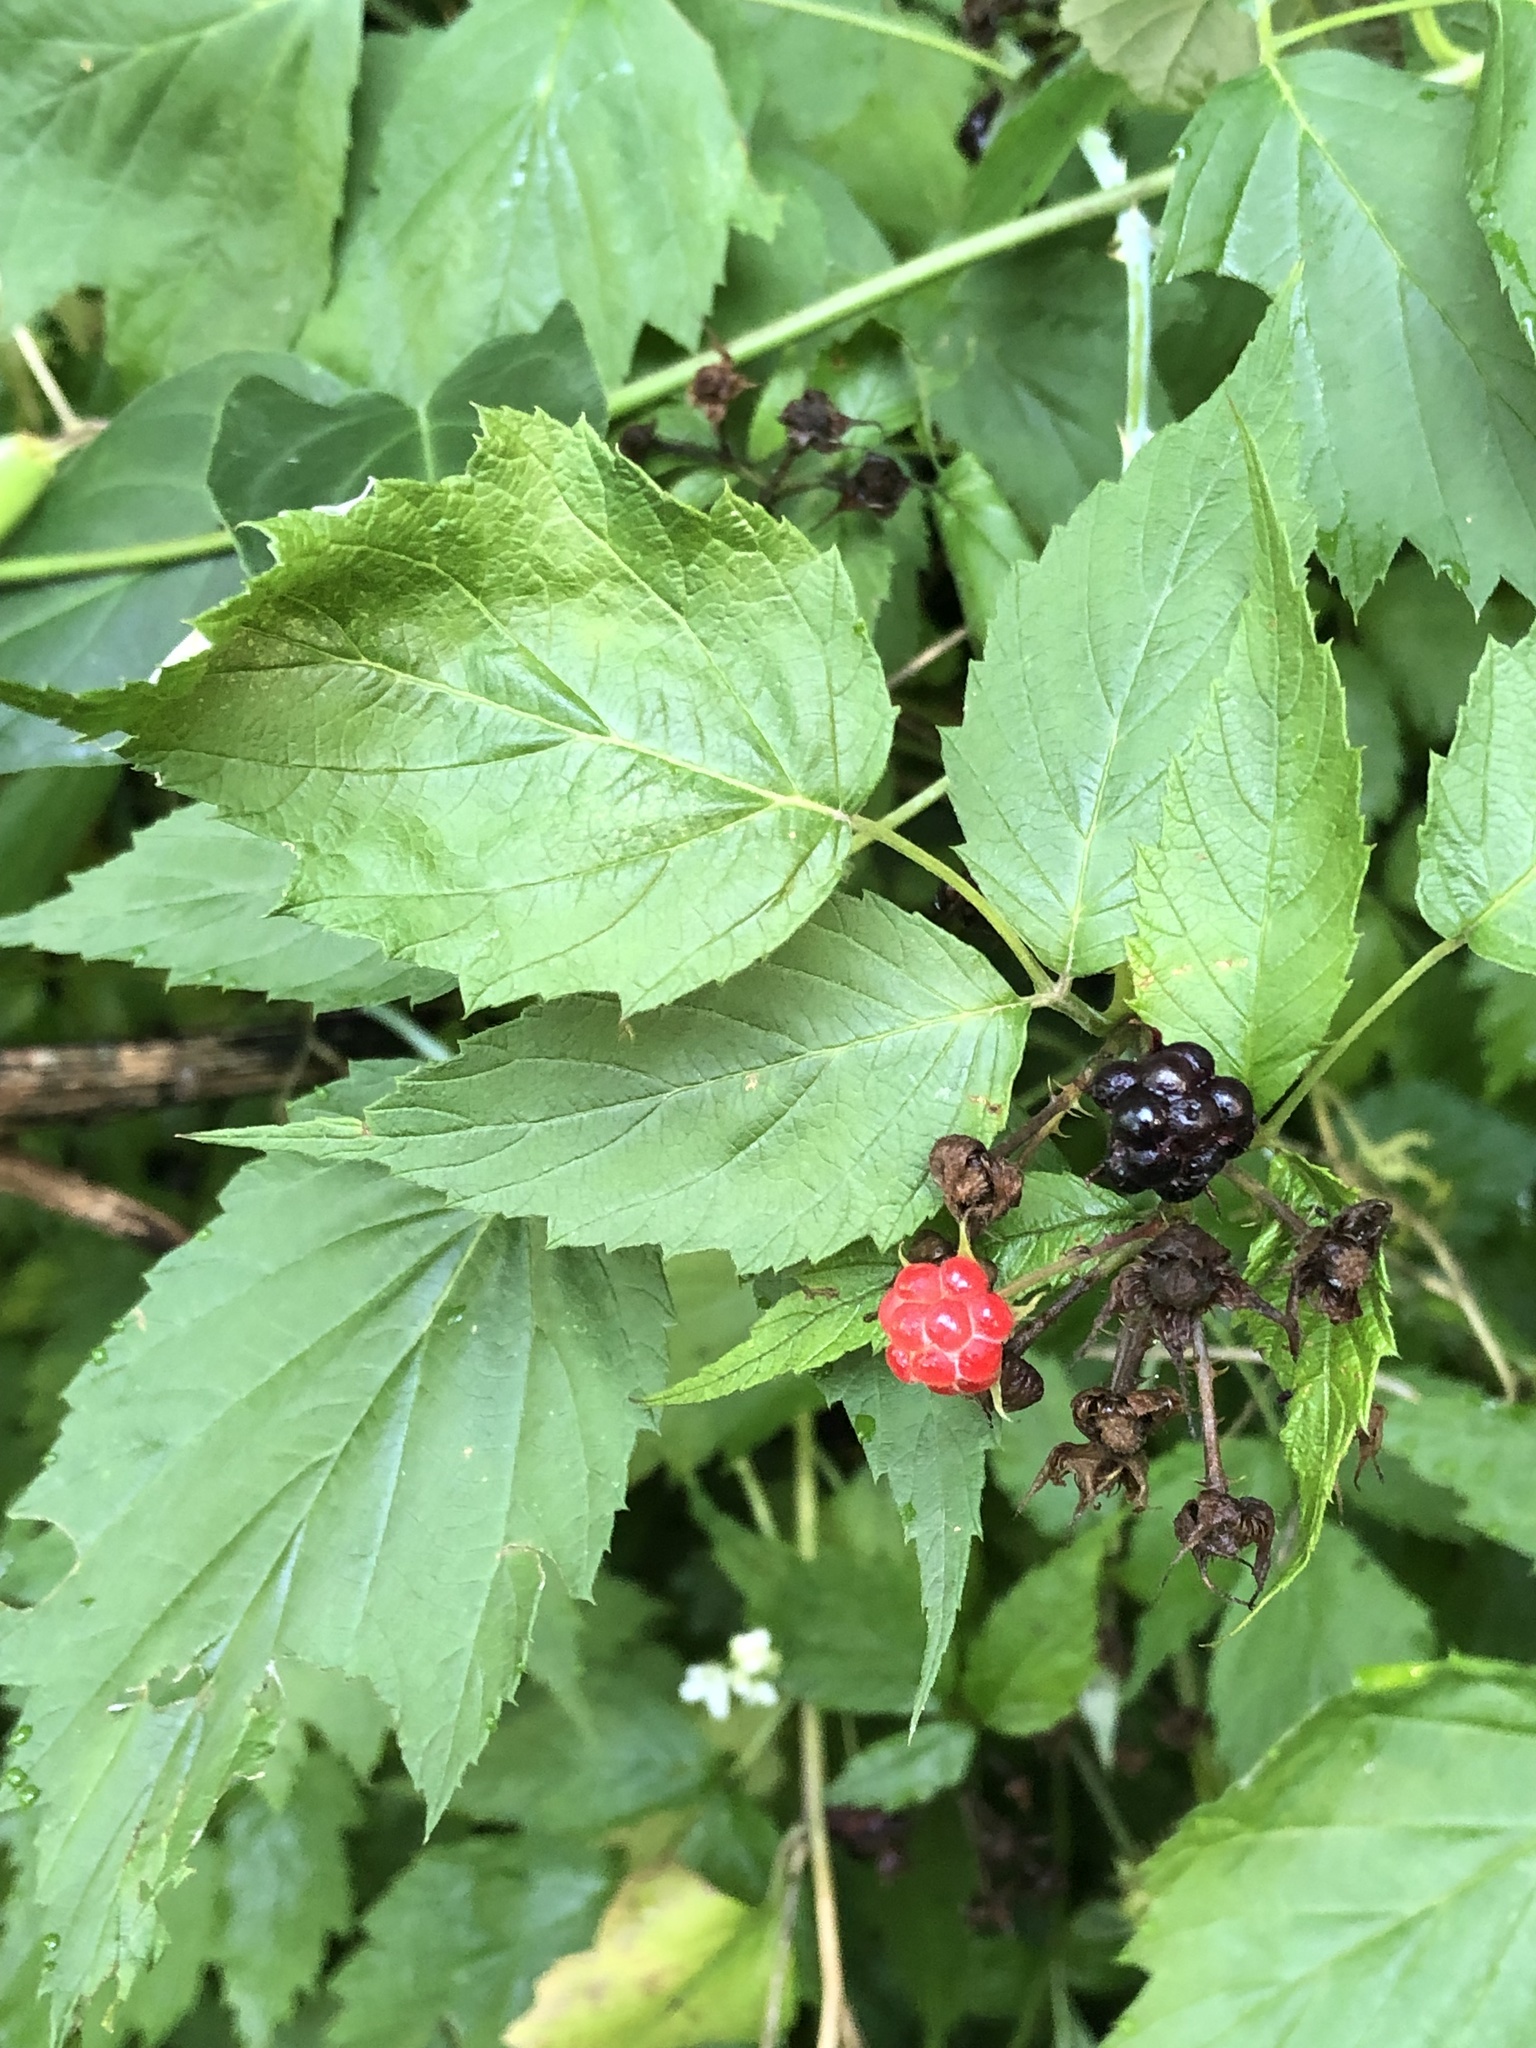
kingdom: Plantae
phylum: Tracheophyta
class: Magnoliopsida
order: Rosales
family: Rosaceae
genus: Rubus
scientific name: Rubus occidentalis
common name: Black raspberry
